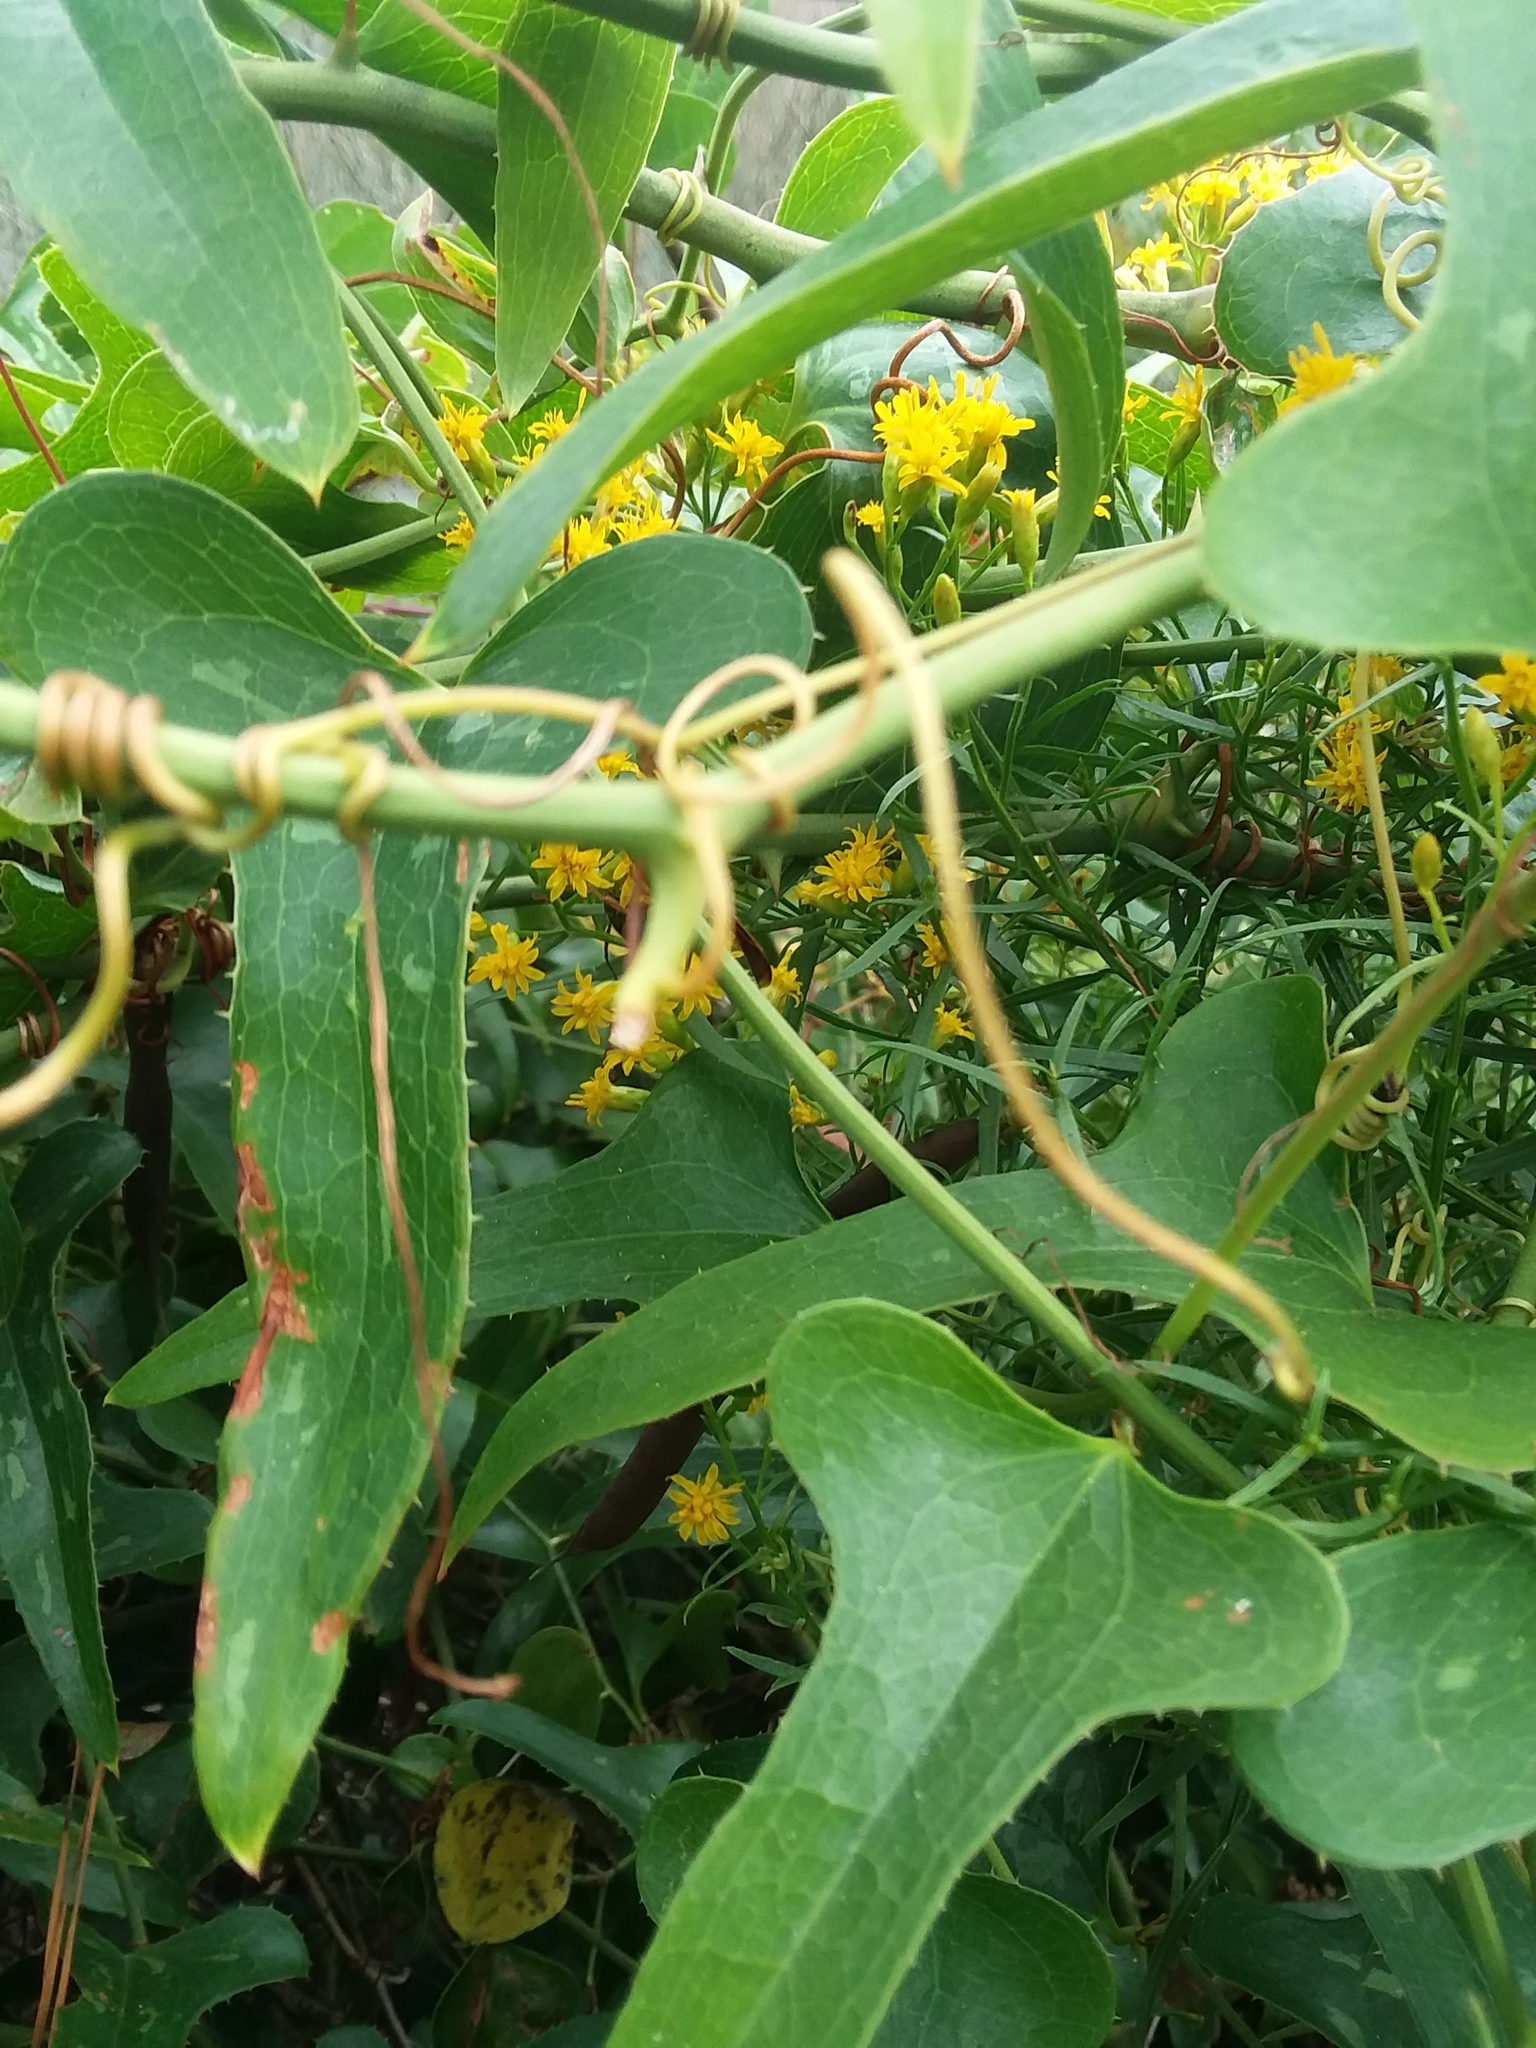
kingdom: Plantae
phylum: Tracheophyta
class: Liliopsida
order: Liliales
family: Smilacaceae
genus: Smilax
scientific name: Smilax bona-nox
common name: Catbrier
